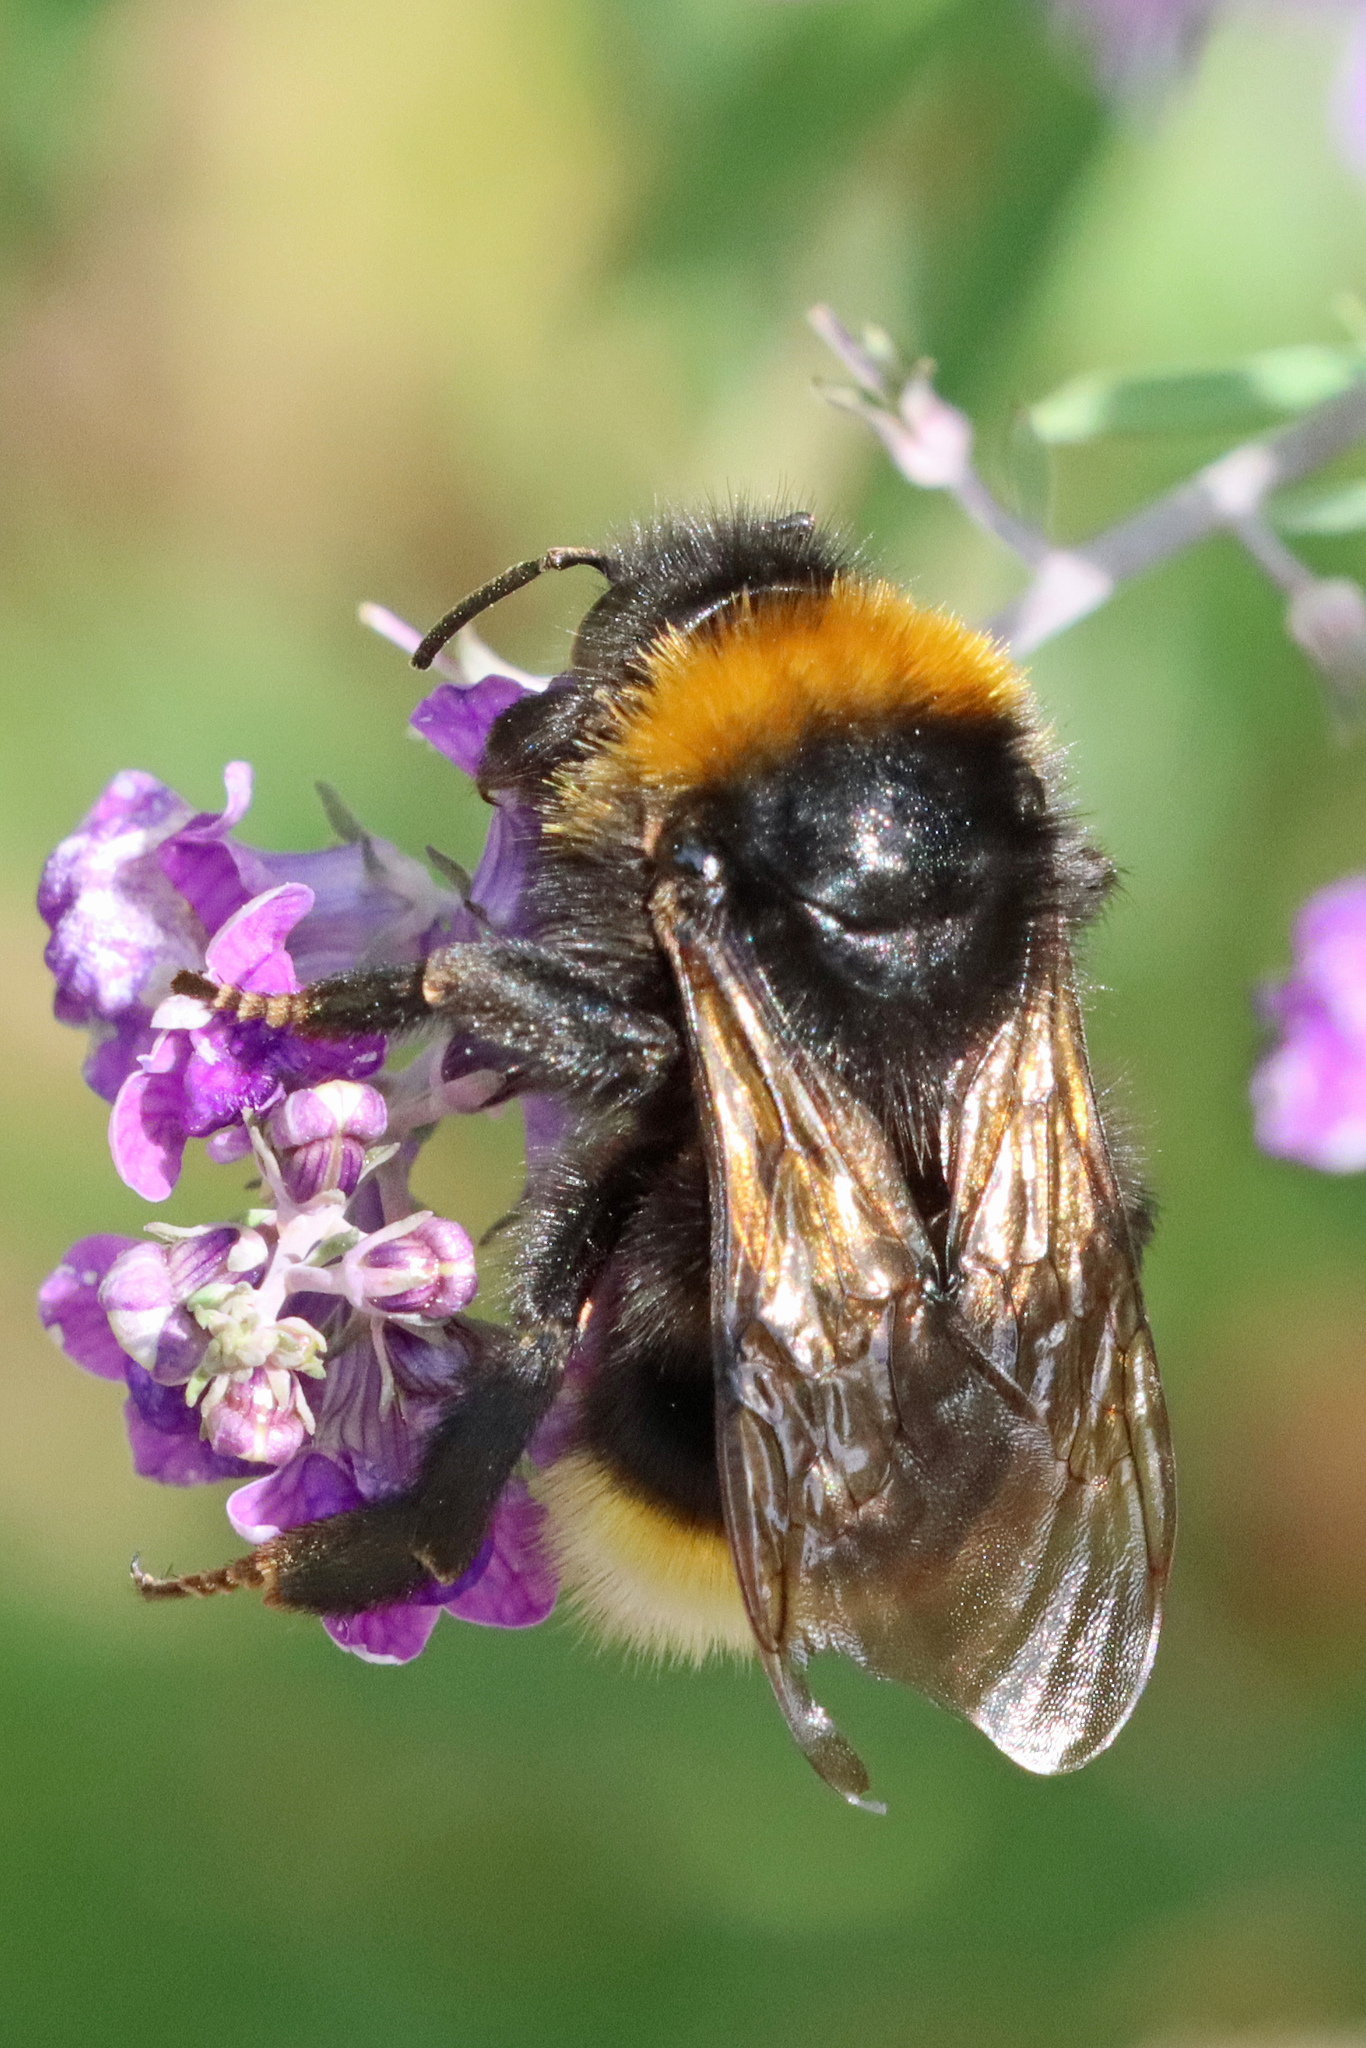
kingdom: Animalia
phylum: Arthropoda
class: Insecta
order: Hymenoptera
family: Apidae
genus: Bombus
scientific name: Bombus vestalis
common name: Vestal cuckoo bee
